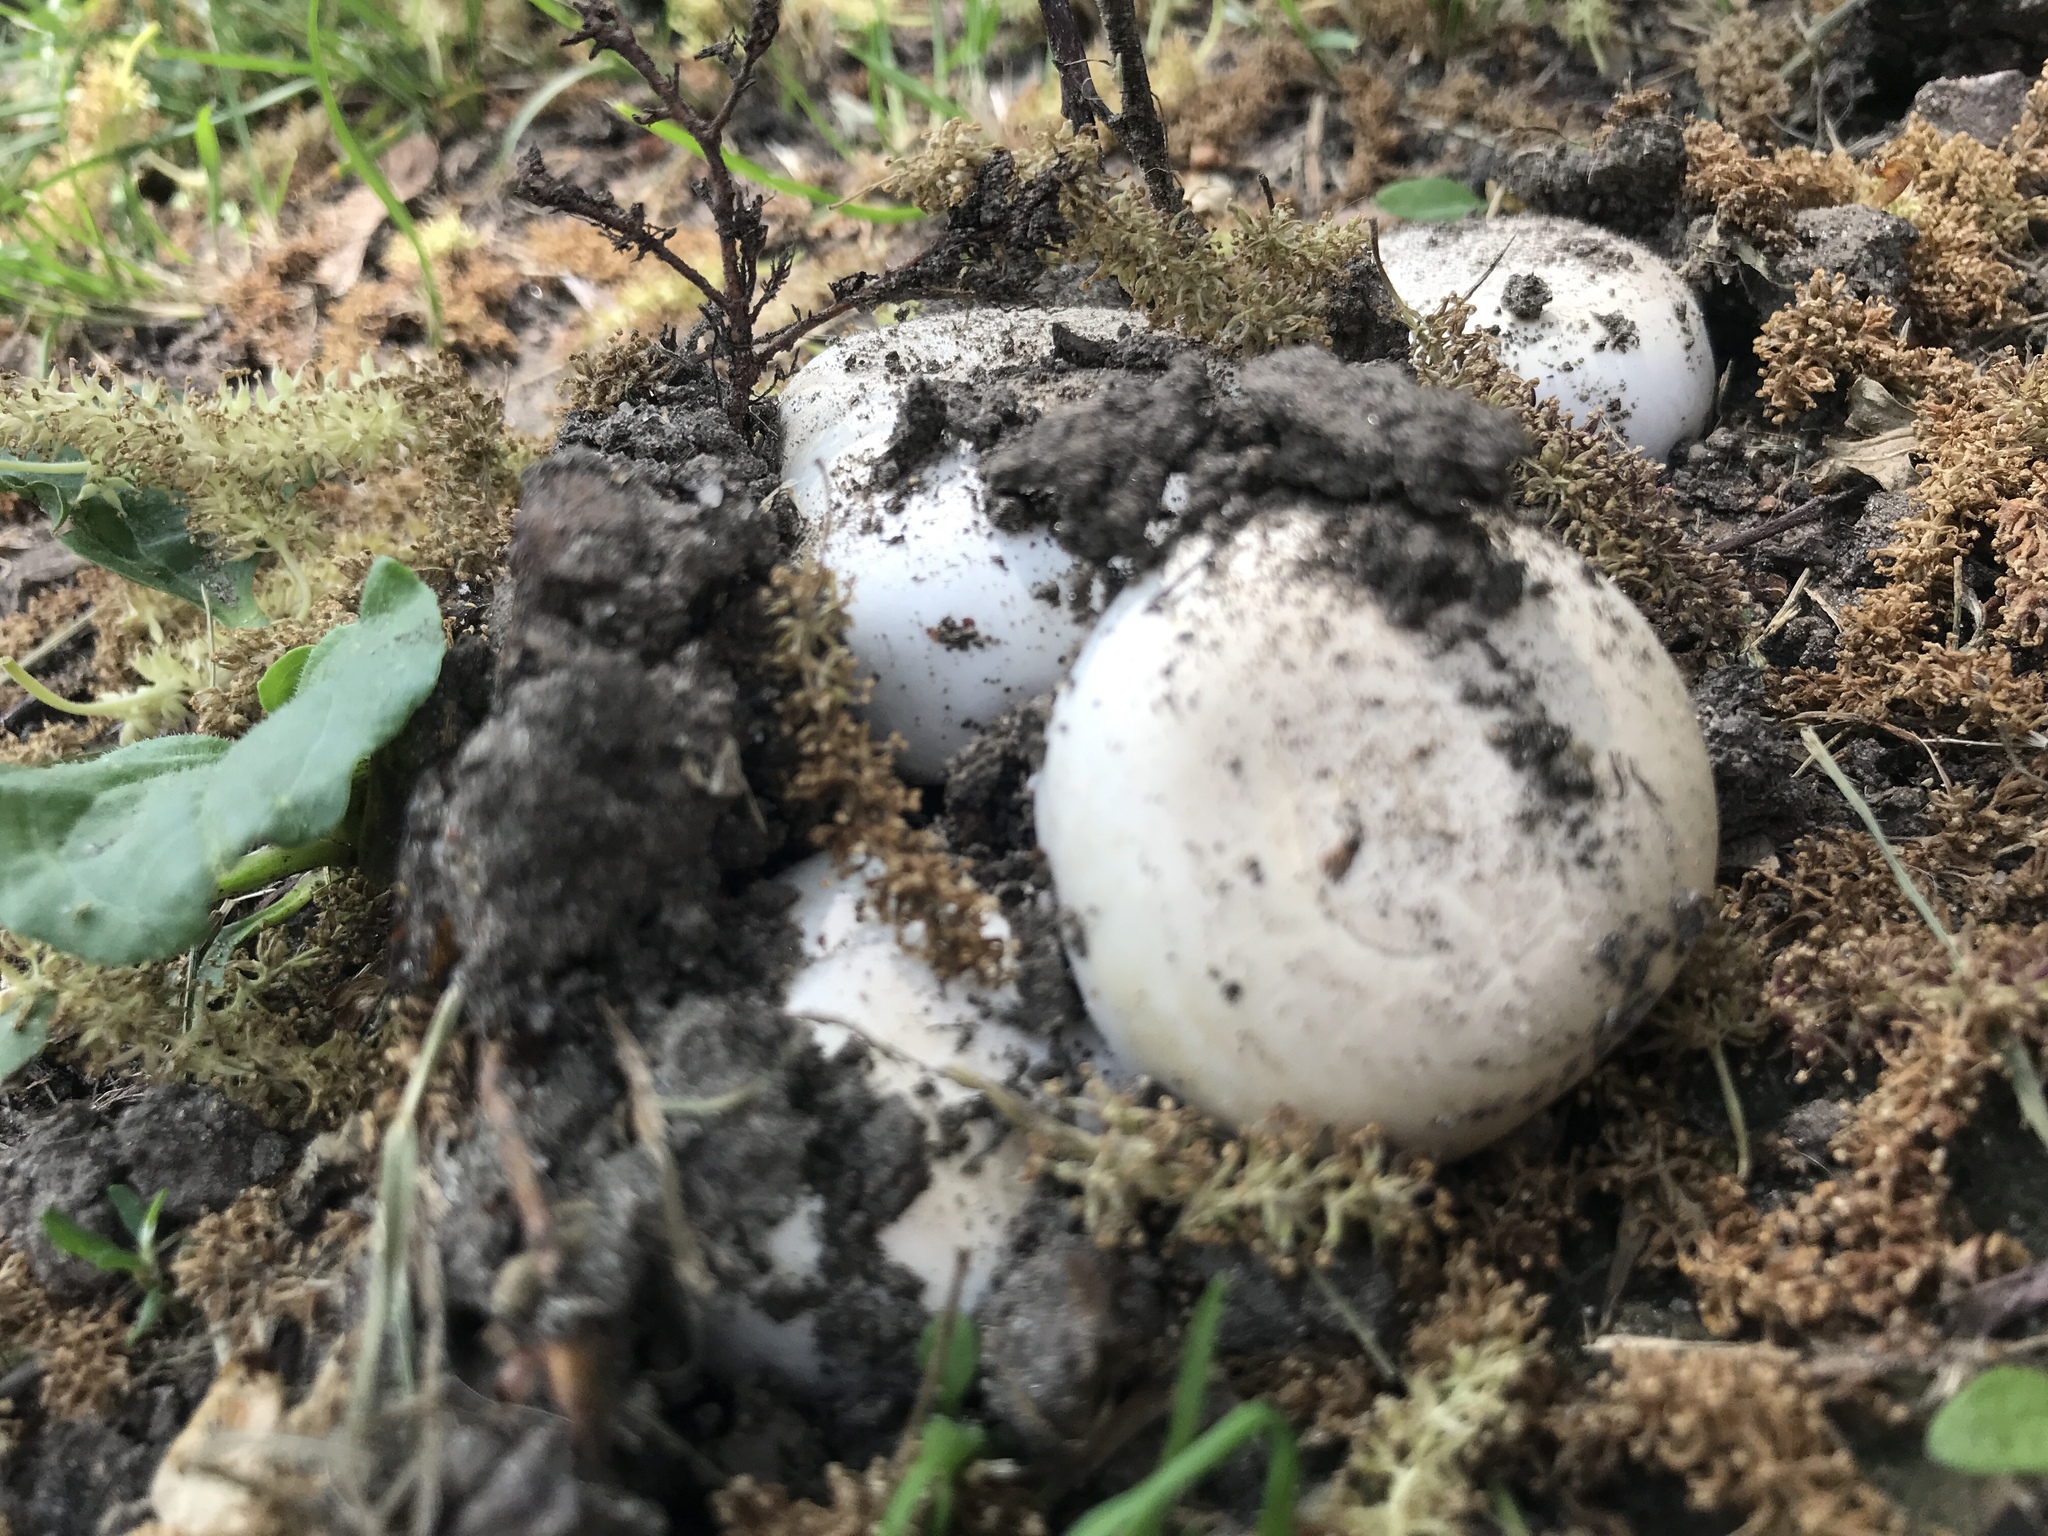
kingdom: Fungi
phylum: Basidiomycota
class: Agaricomycetes
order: Agaricales
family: Agaricaceae
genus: Agaricus
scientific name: Agaricus bitorquis
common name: Pavement mushroom
